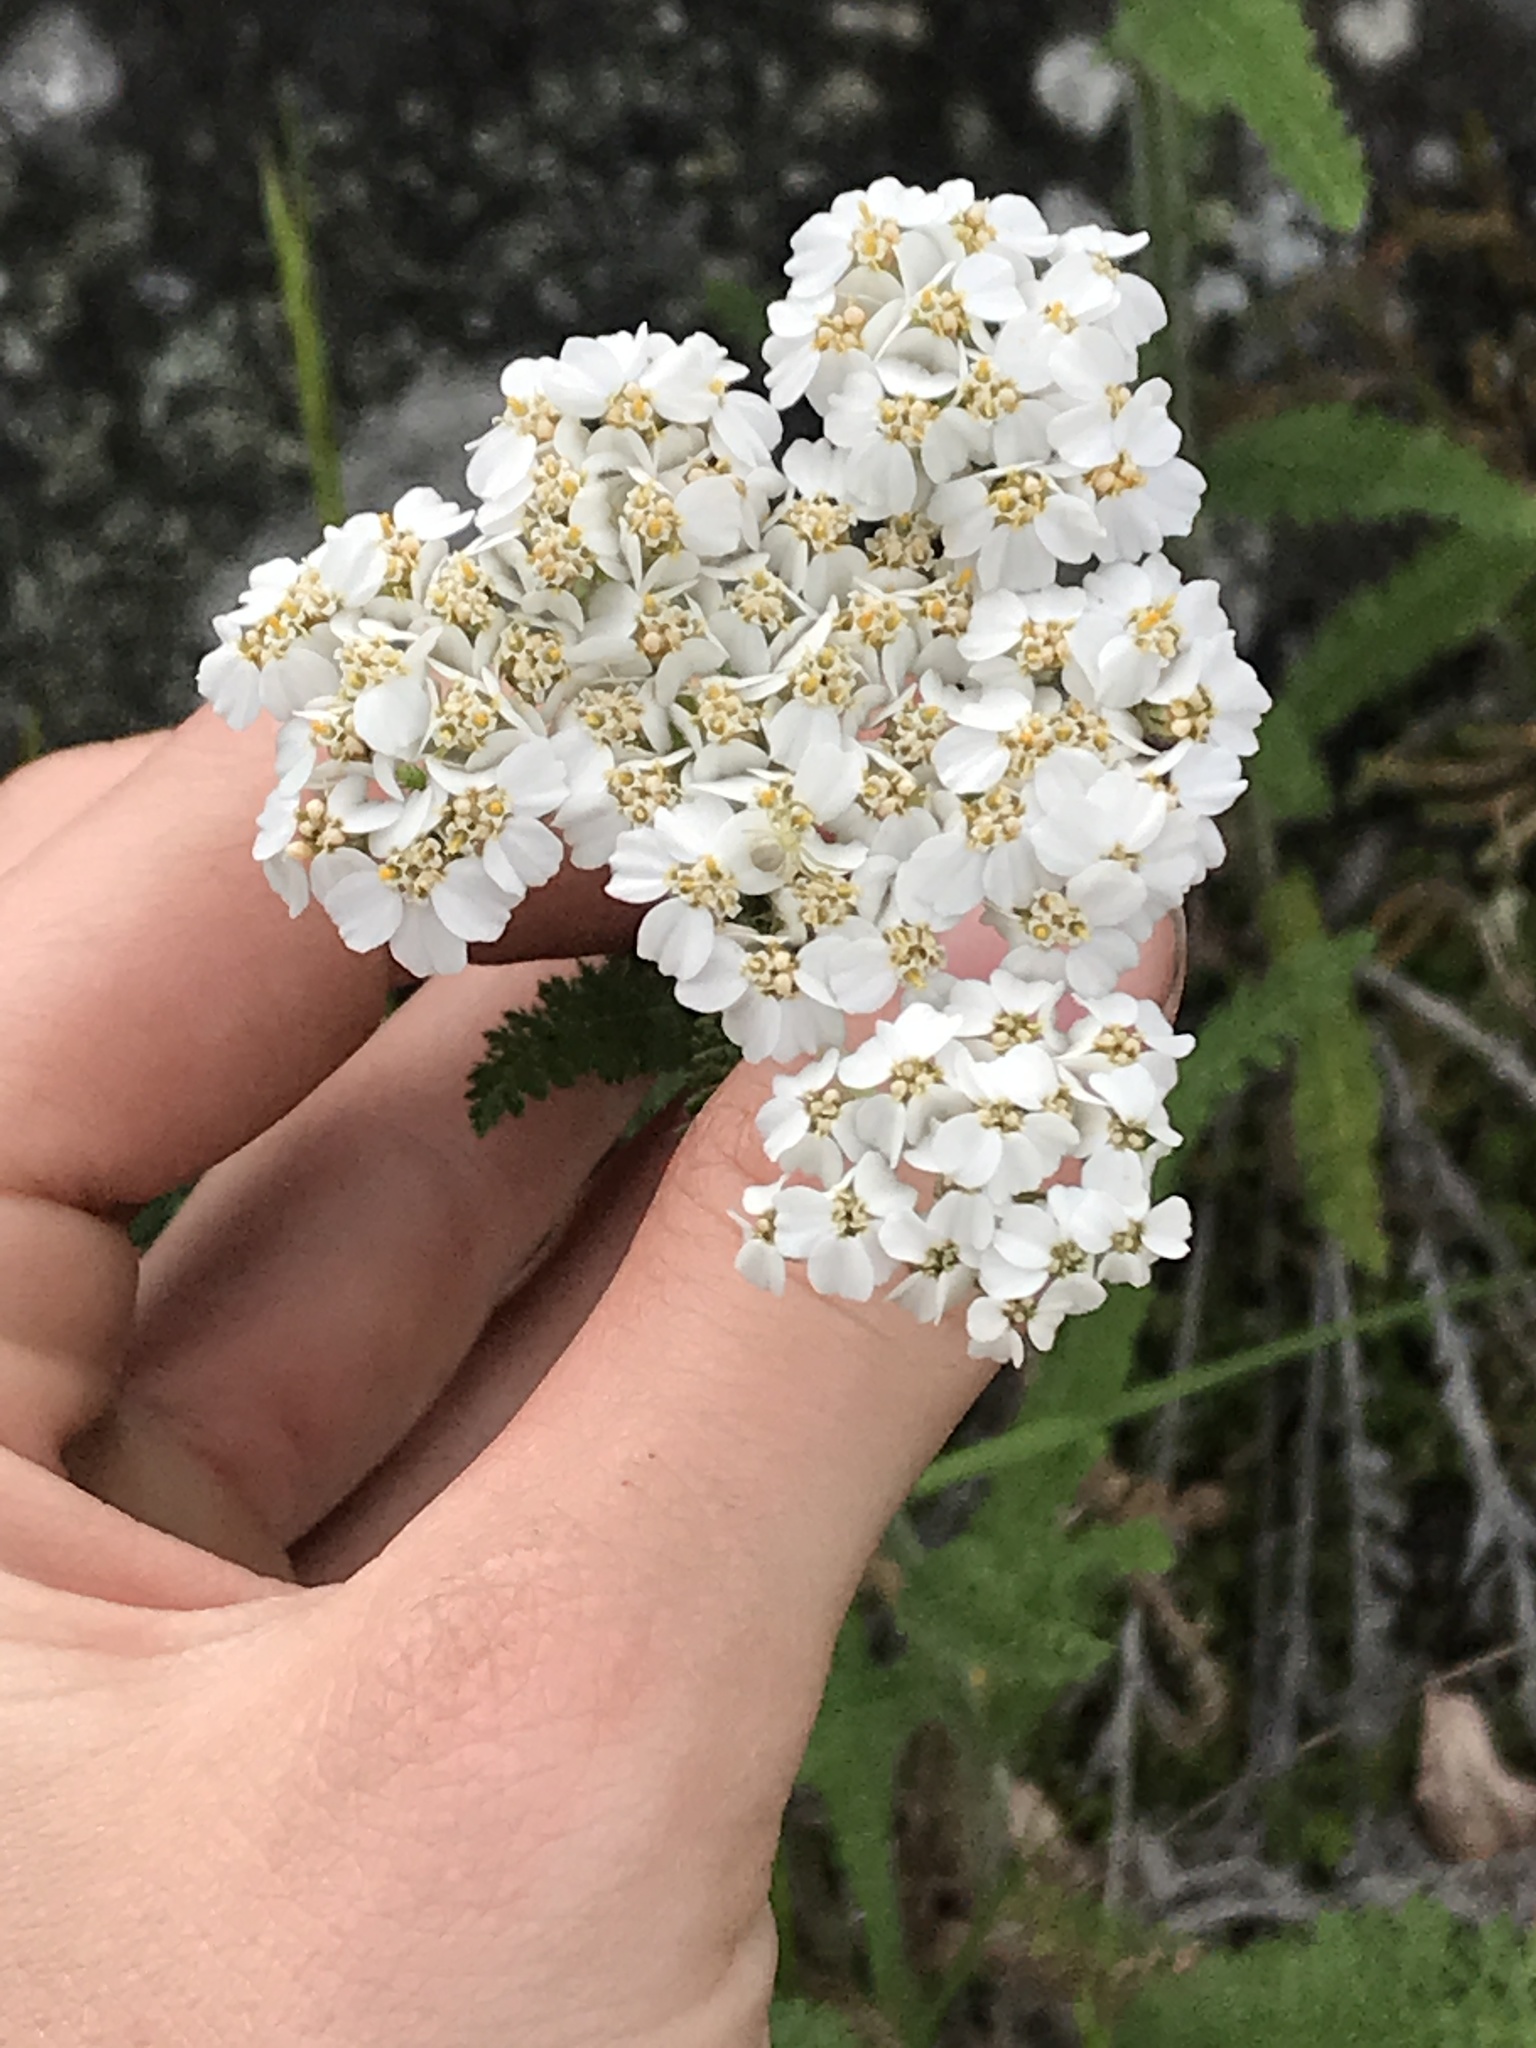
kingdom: Plantae
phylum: Tracheophyta
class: Magnoliopsida
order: Asterales
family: Asteraceae
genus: Achillea
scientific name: Achillea millefolium
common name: Yarrow
